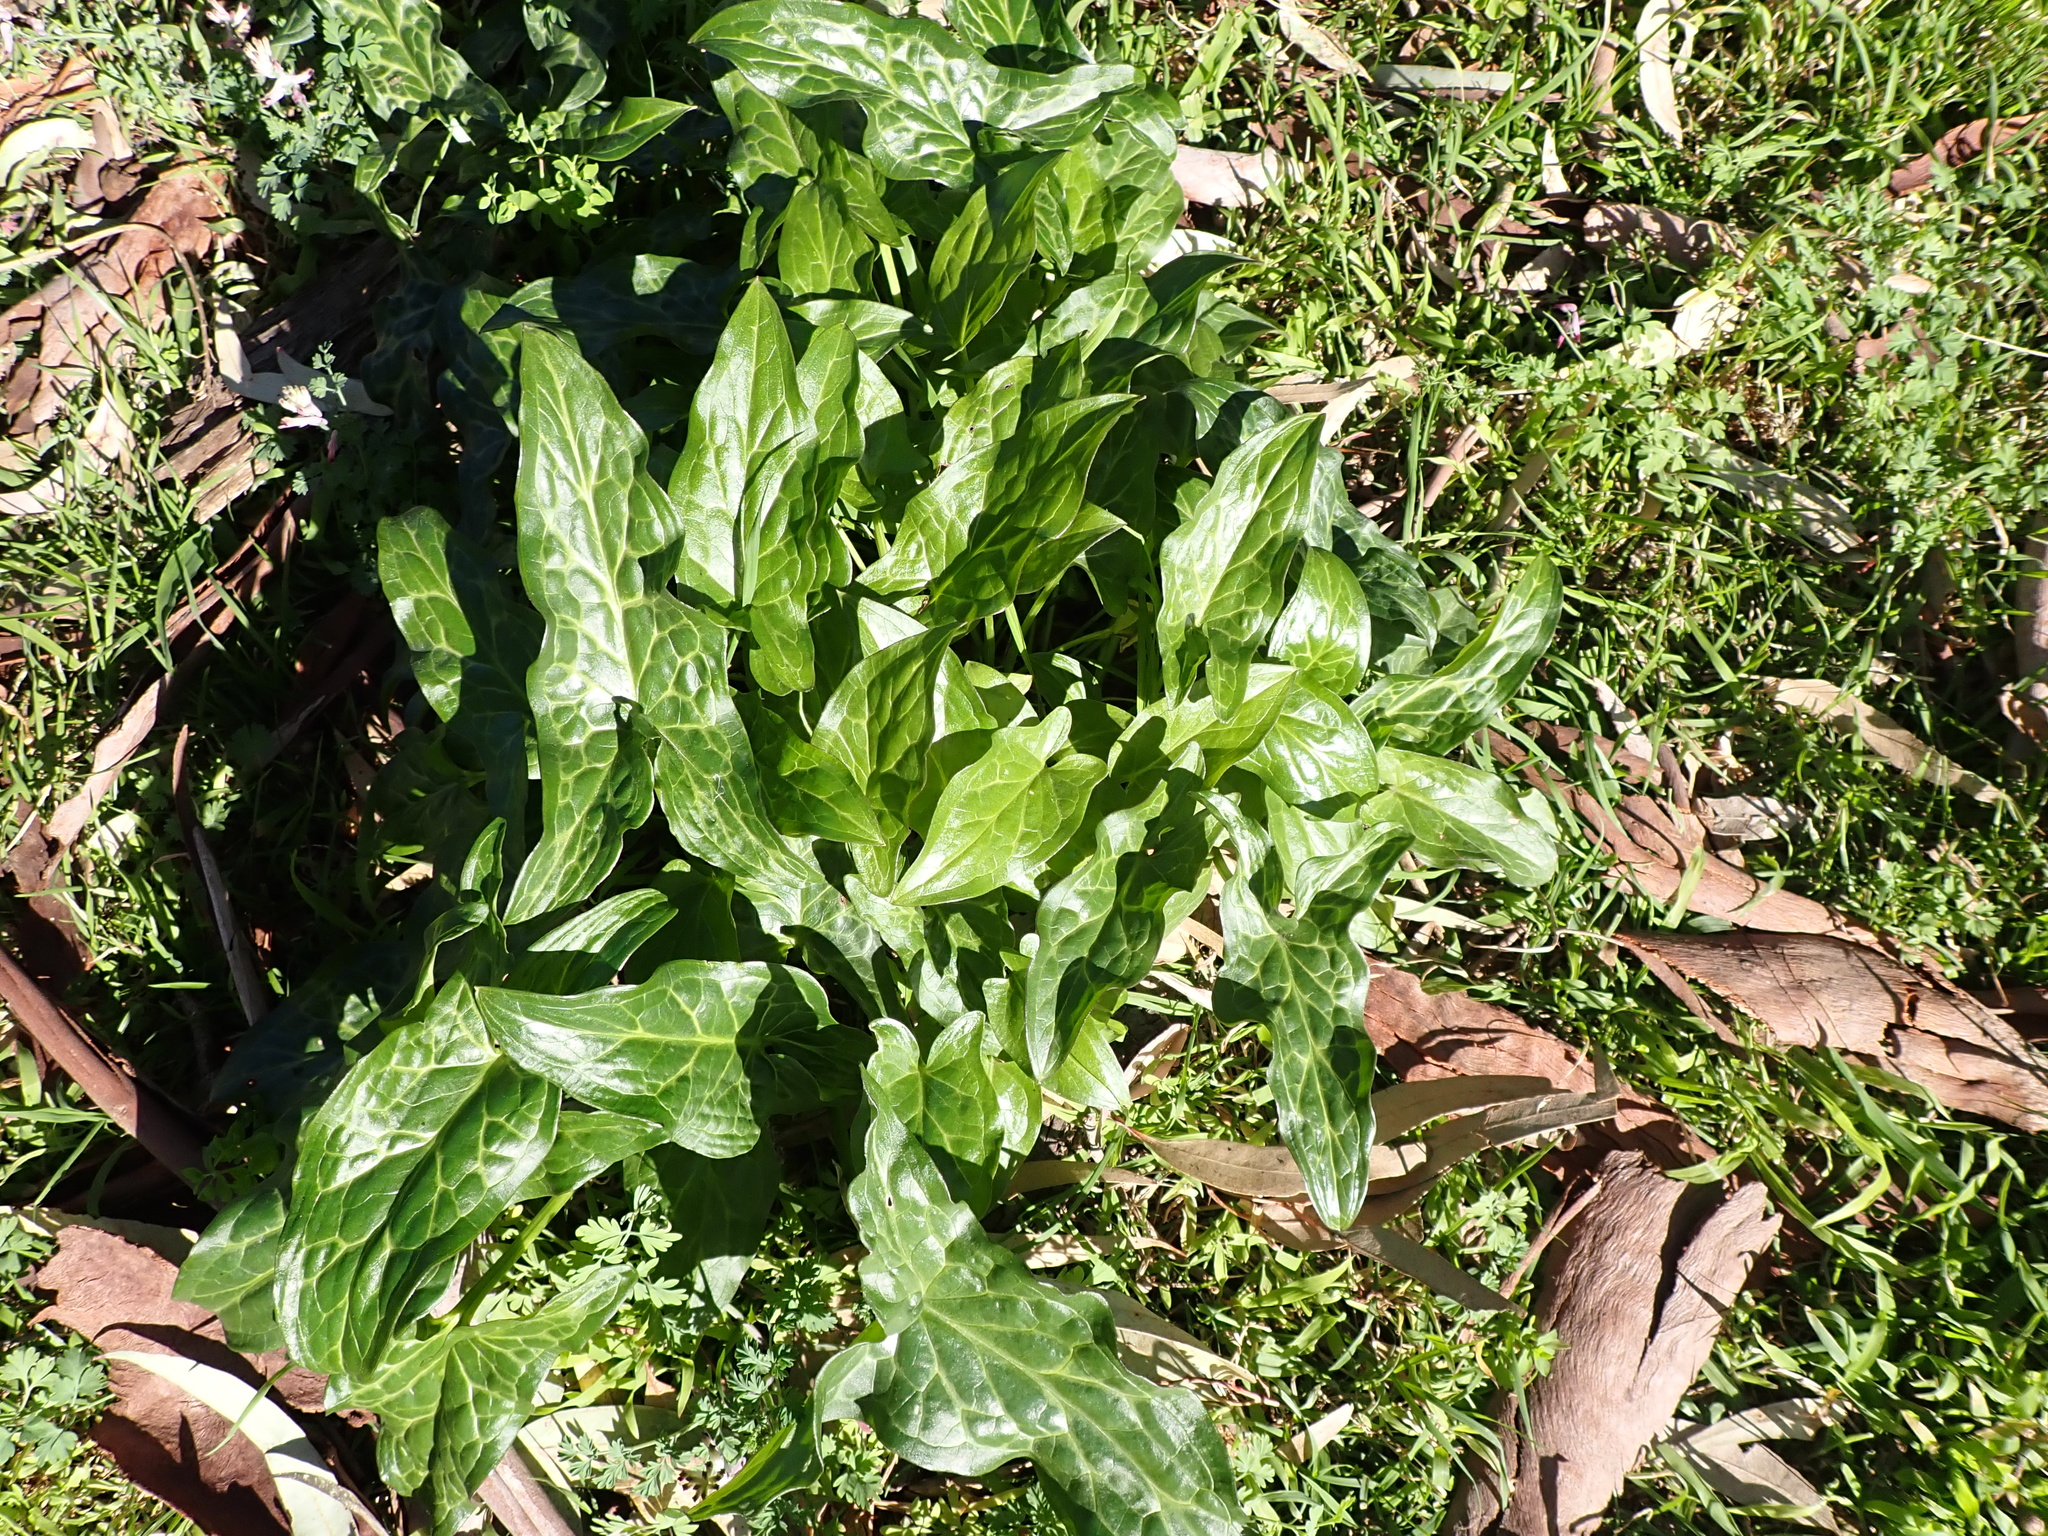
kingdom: Plantae
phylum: Tracheophyta
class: Liliopsida
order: Alismatales
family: Araceae
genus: Arum
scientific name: Arum italicum
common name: Italian lords-and-ladies
